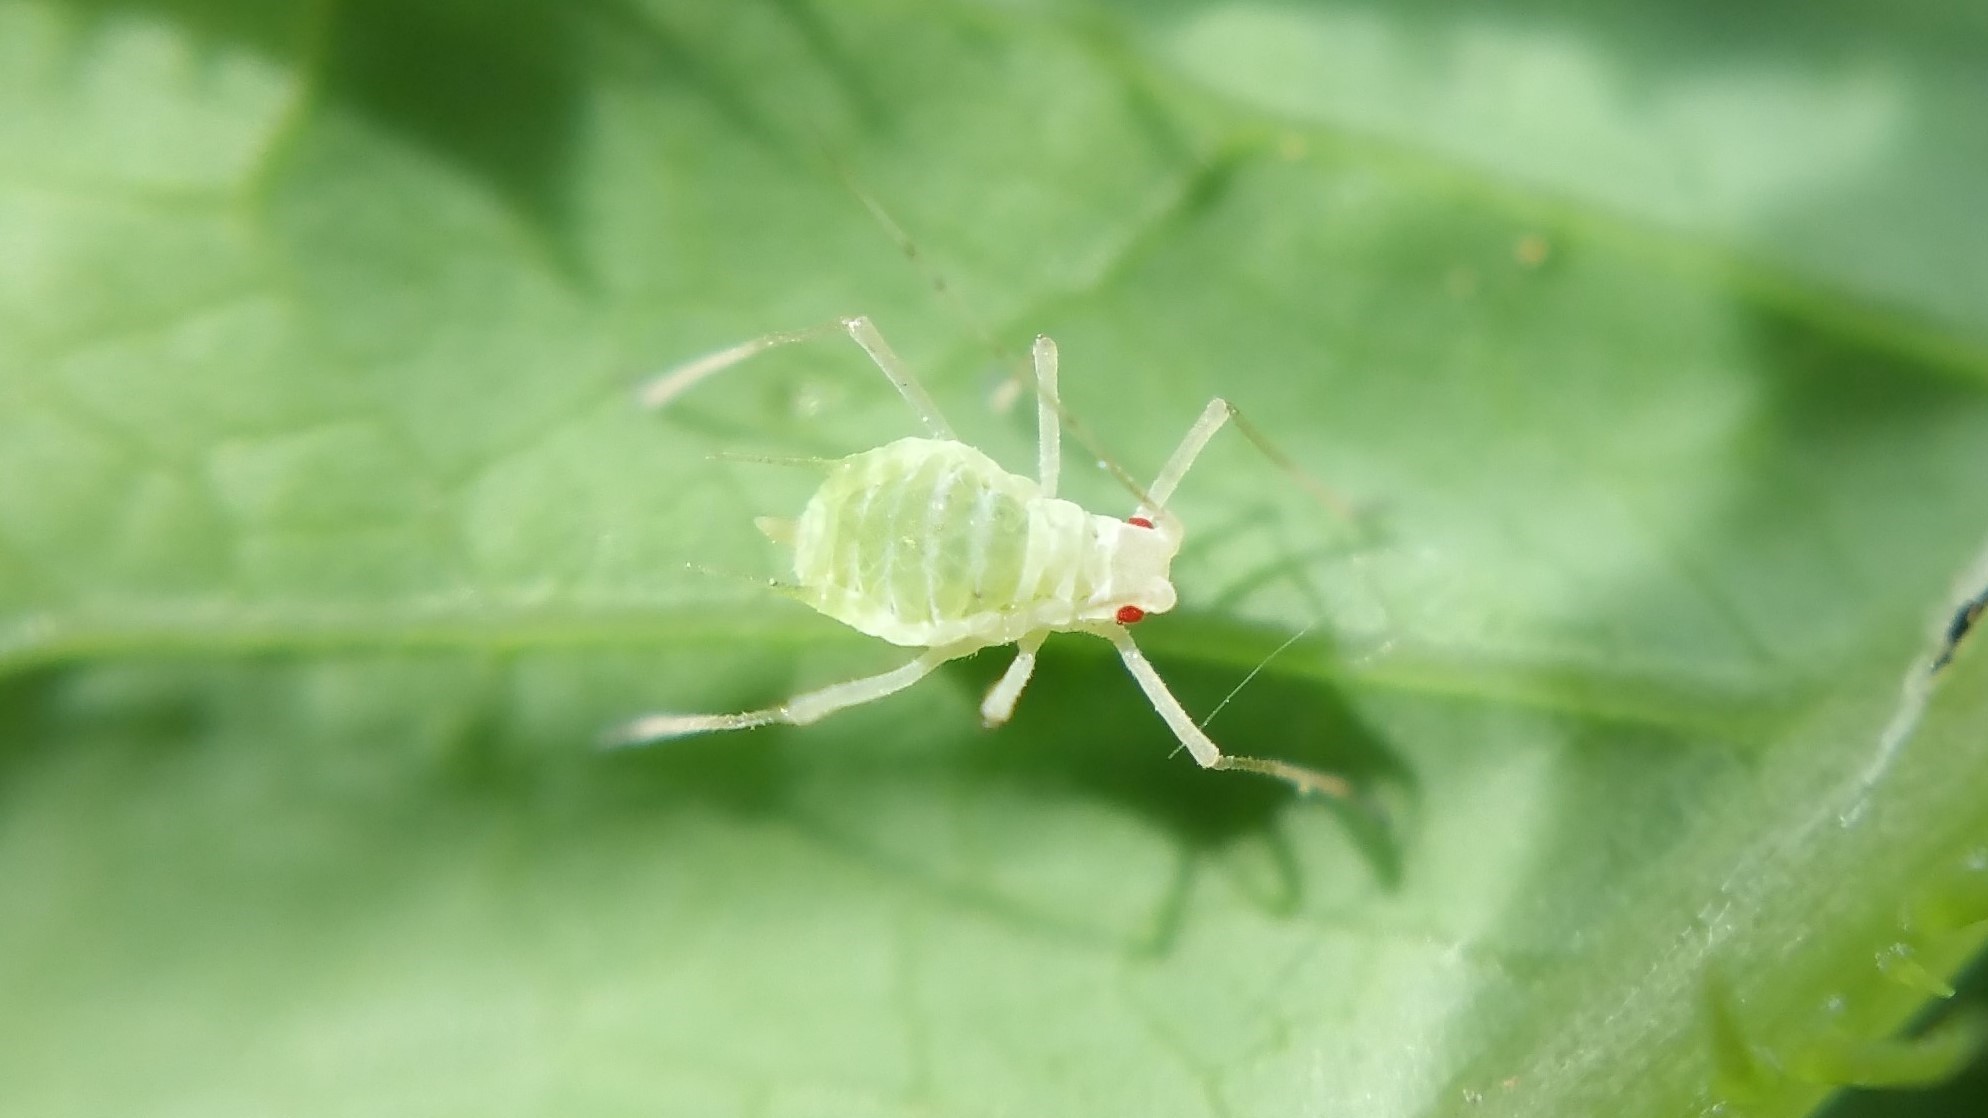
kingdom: Animalia
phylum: Arthropoda
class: Insecta
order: Hemiptera
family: Aphididae
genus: Acyrthosiphon
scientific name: Acyrthosiphon lactucae
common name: Aphid
